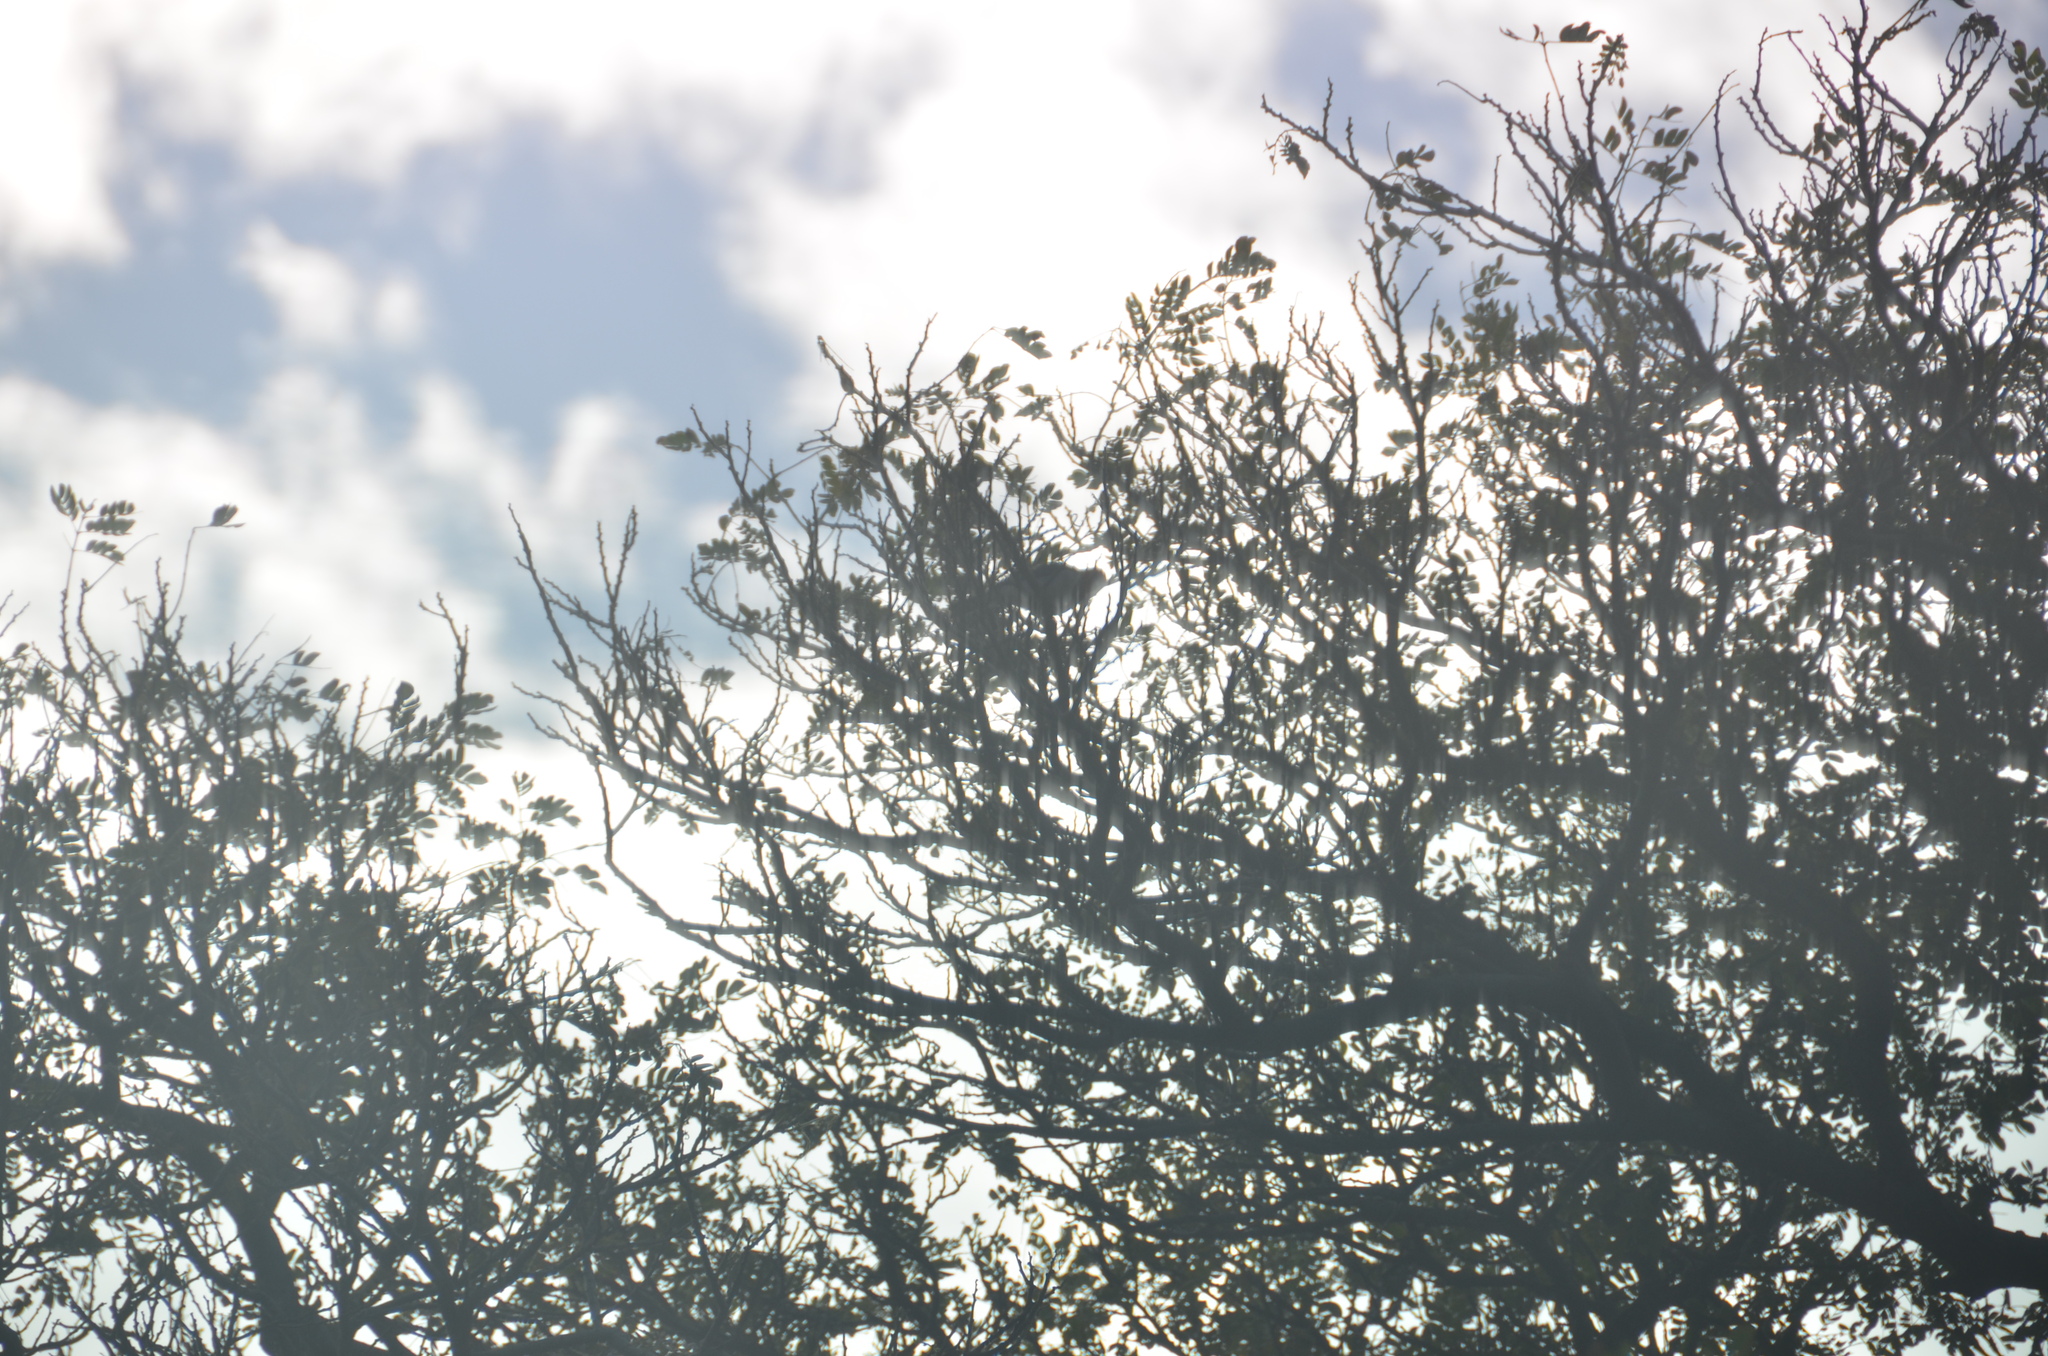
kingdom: Animalia
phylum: Chordata
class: Aves
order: Passeriformes
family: Thraupidae
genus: Paroaria
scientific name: Paroaria coronata
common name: Red-crested cardinal
